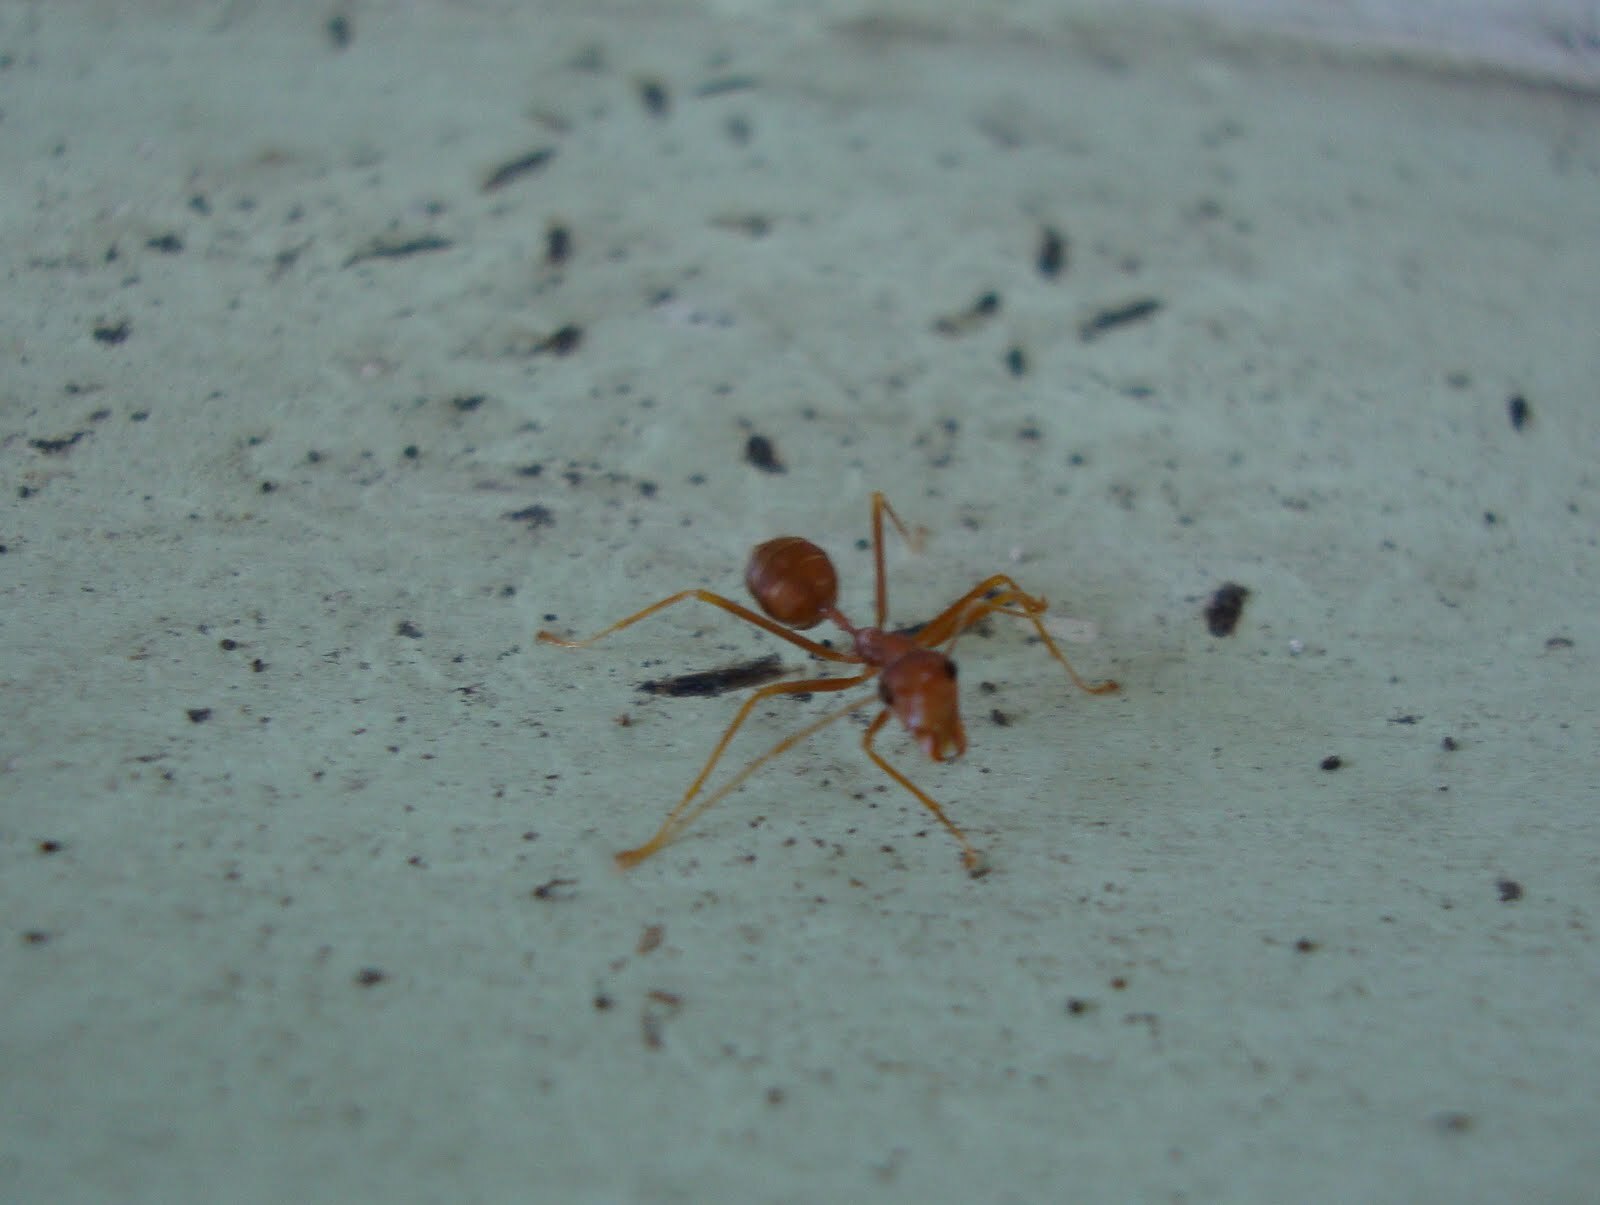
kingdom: Animalia
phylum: Arthropoda
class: Insecta
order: Hymenoptera
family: Formicidae
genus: Oecophylla
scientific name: Oecophylla smaragdina
